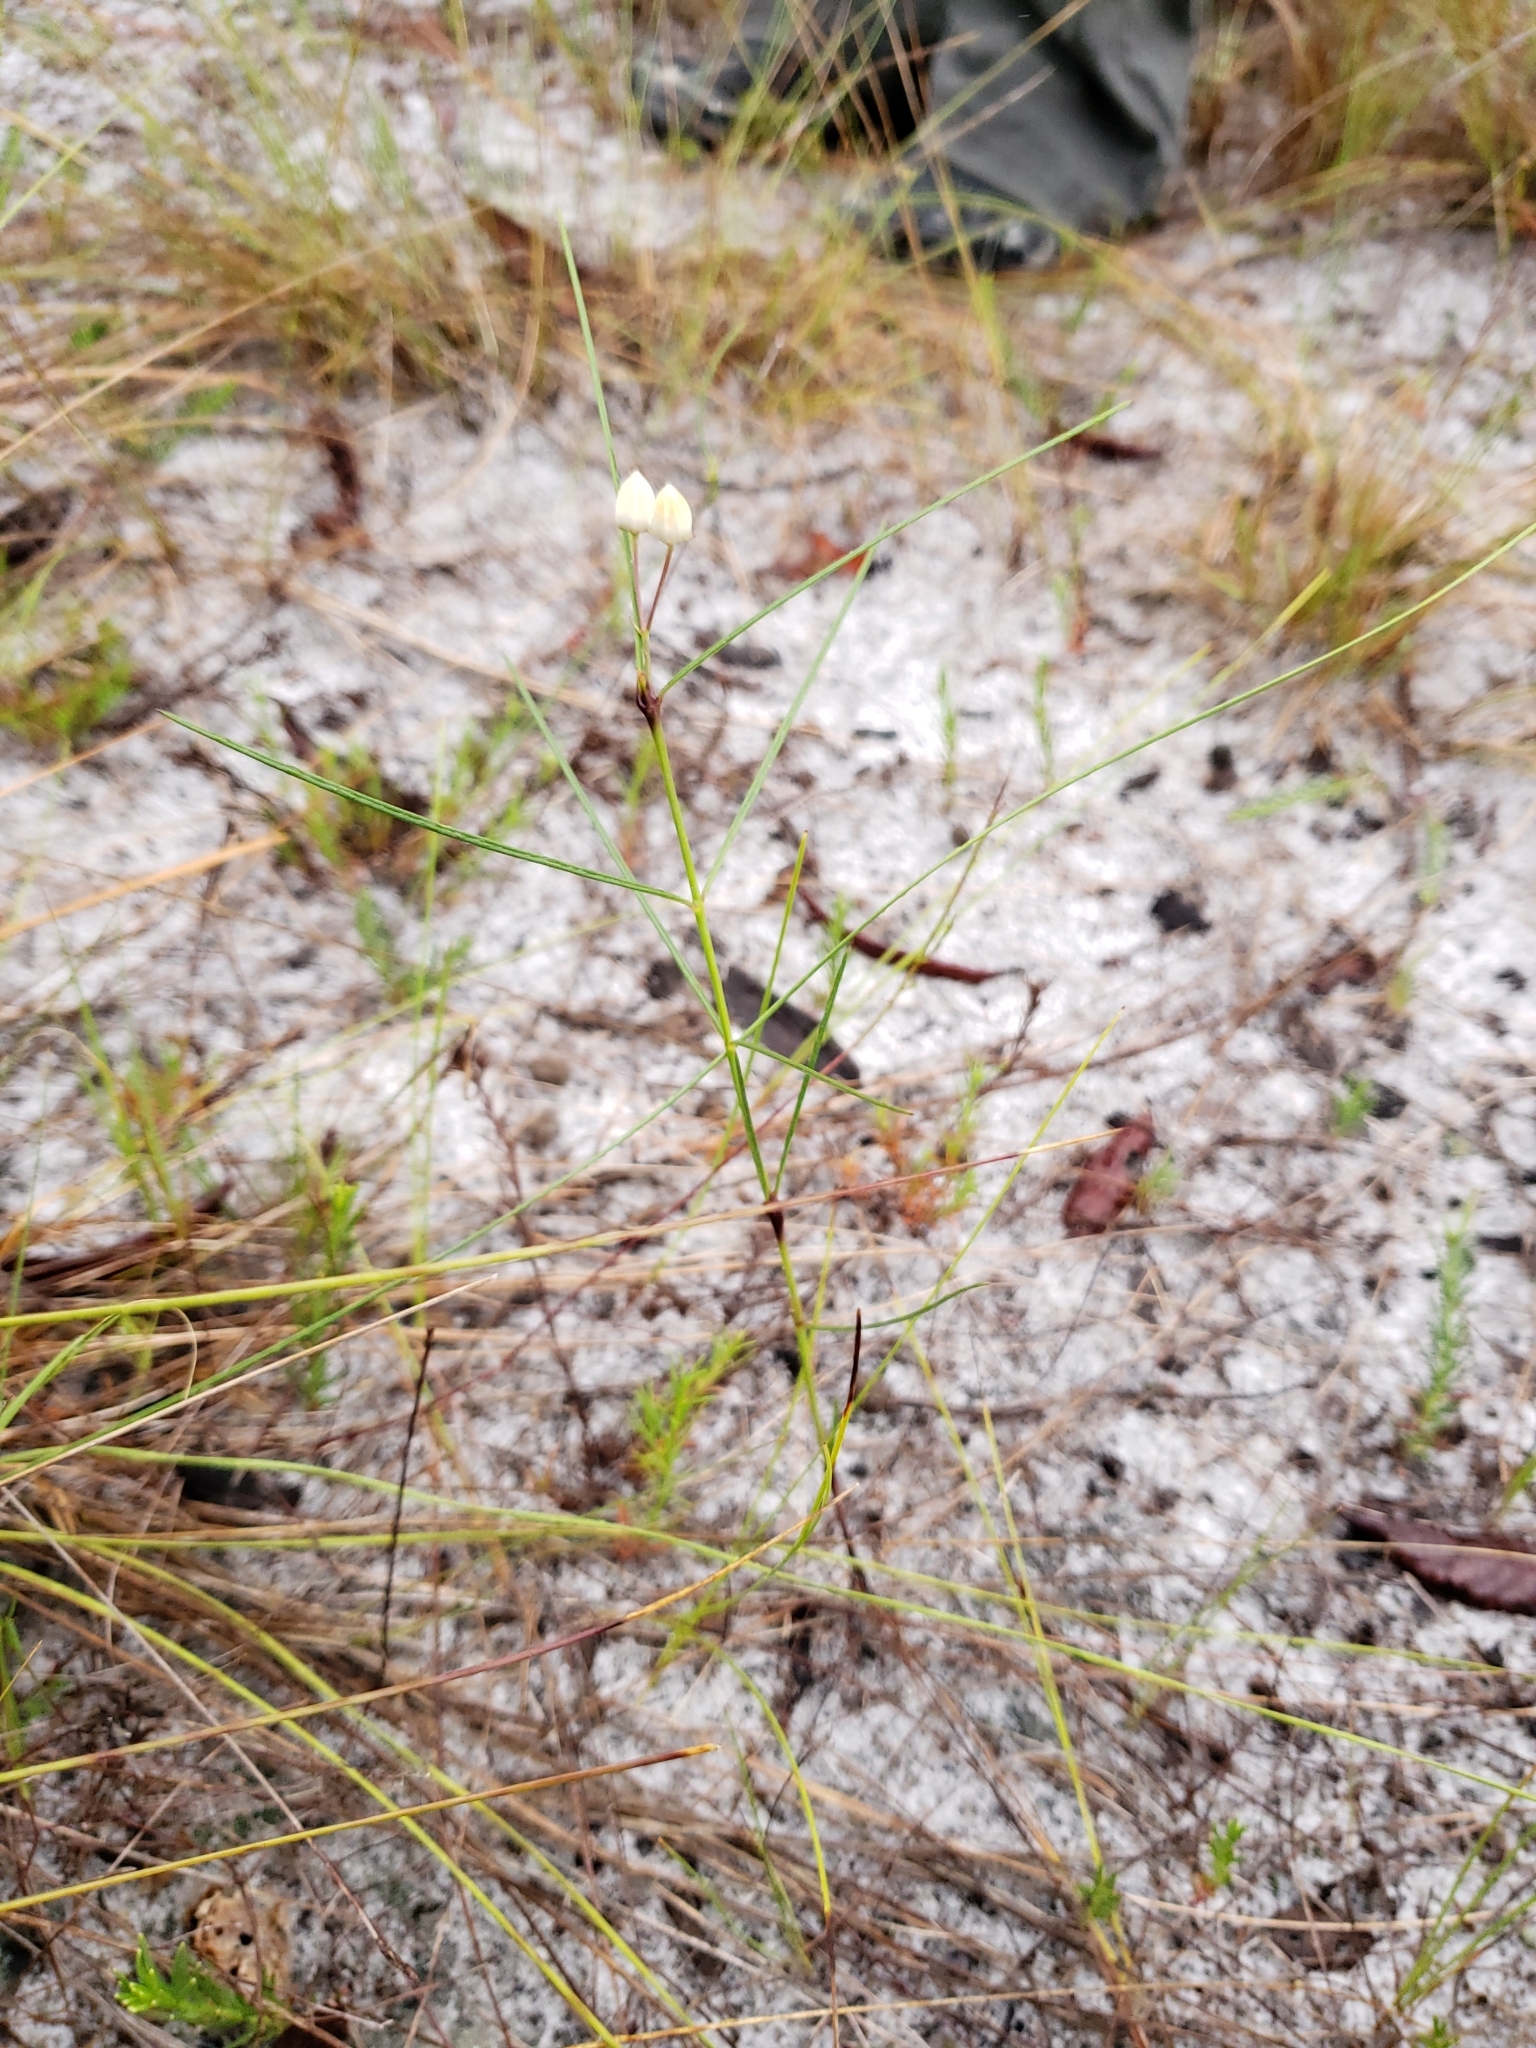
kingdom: Plantae
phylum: Tracheophyta
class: Magnoliopsida
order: Gentianales
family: Apocynaceae
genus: Asclepias
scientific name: Asclepias feayi
